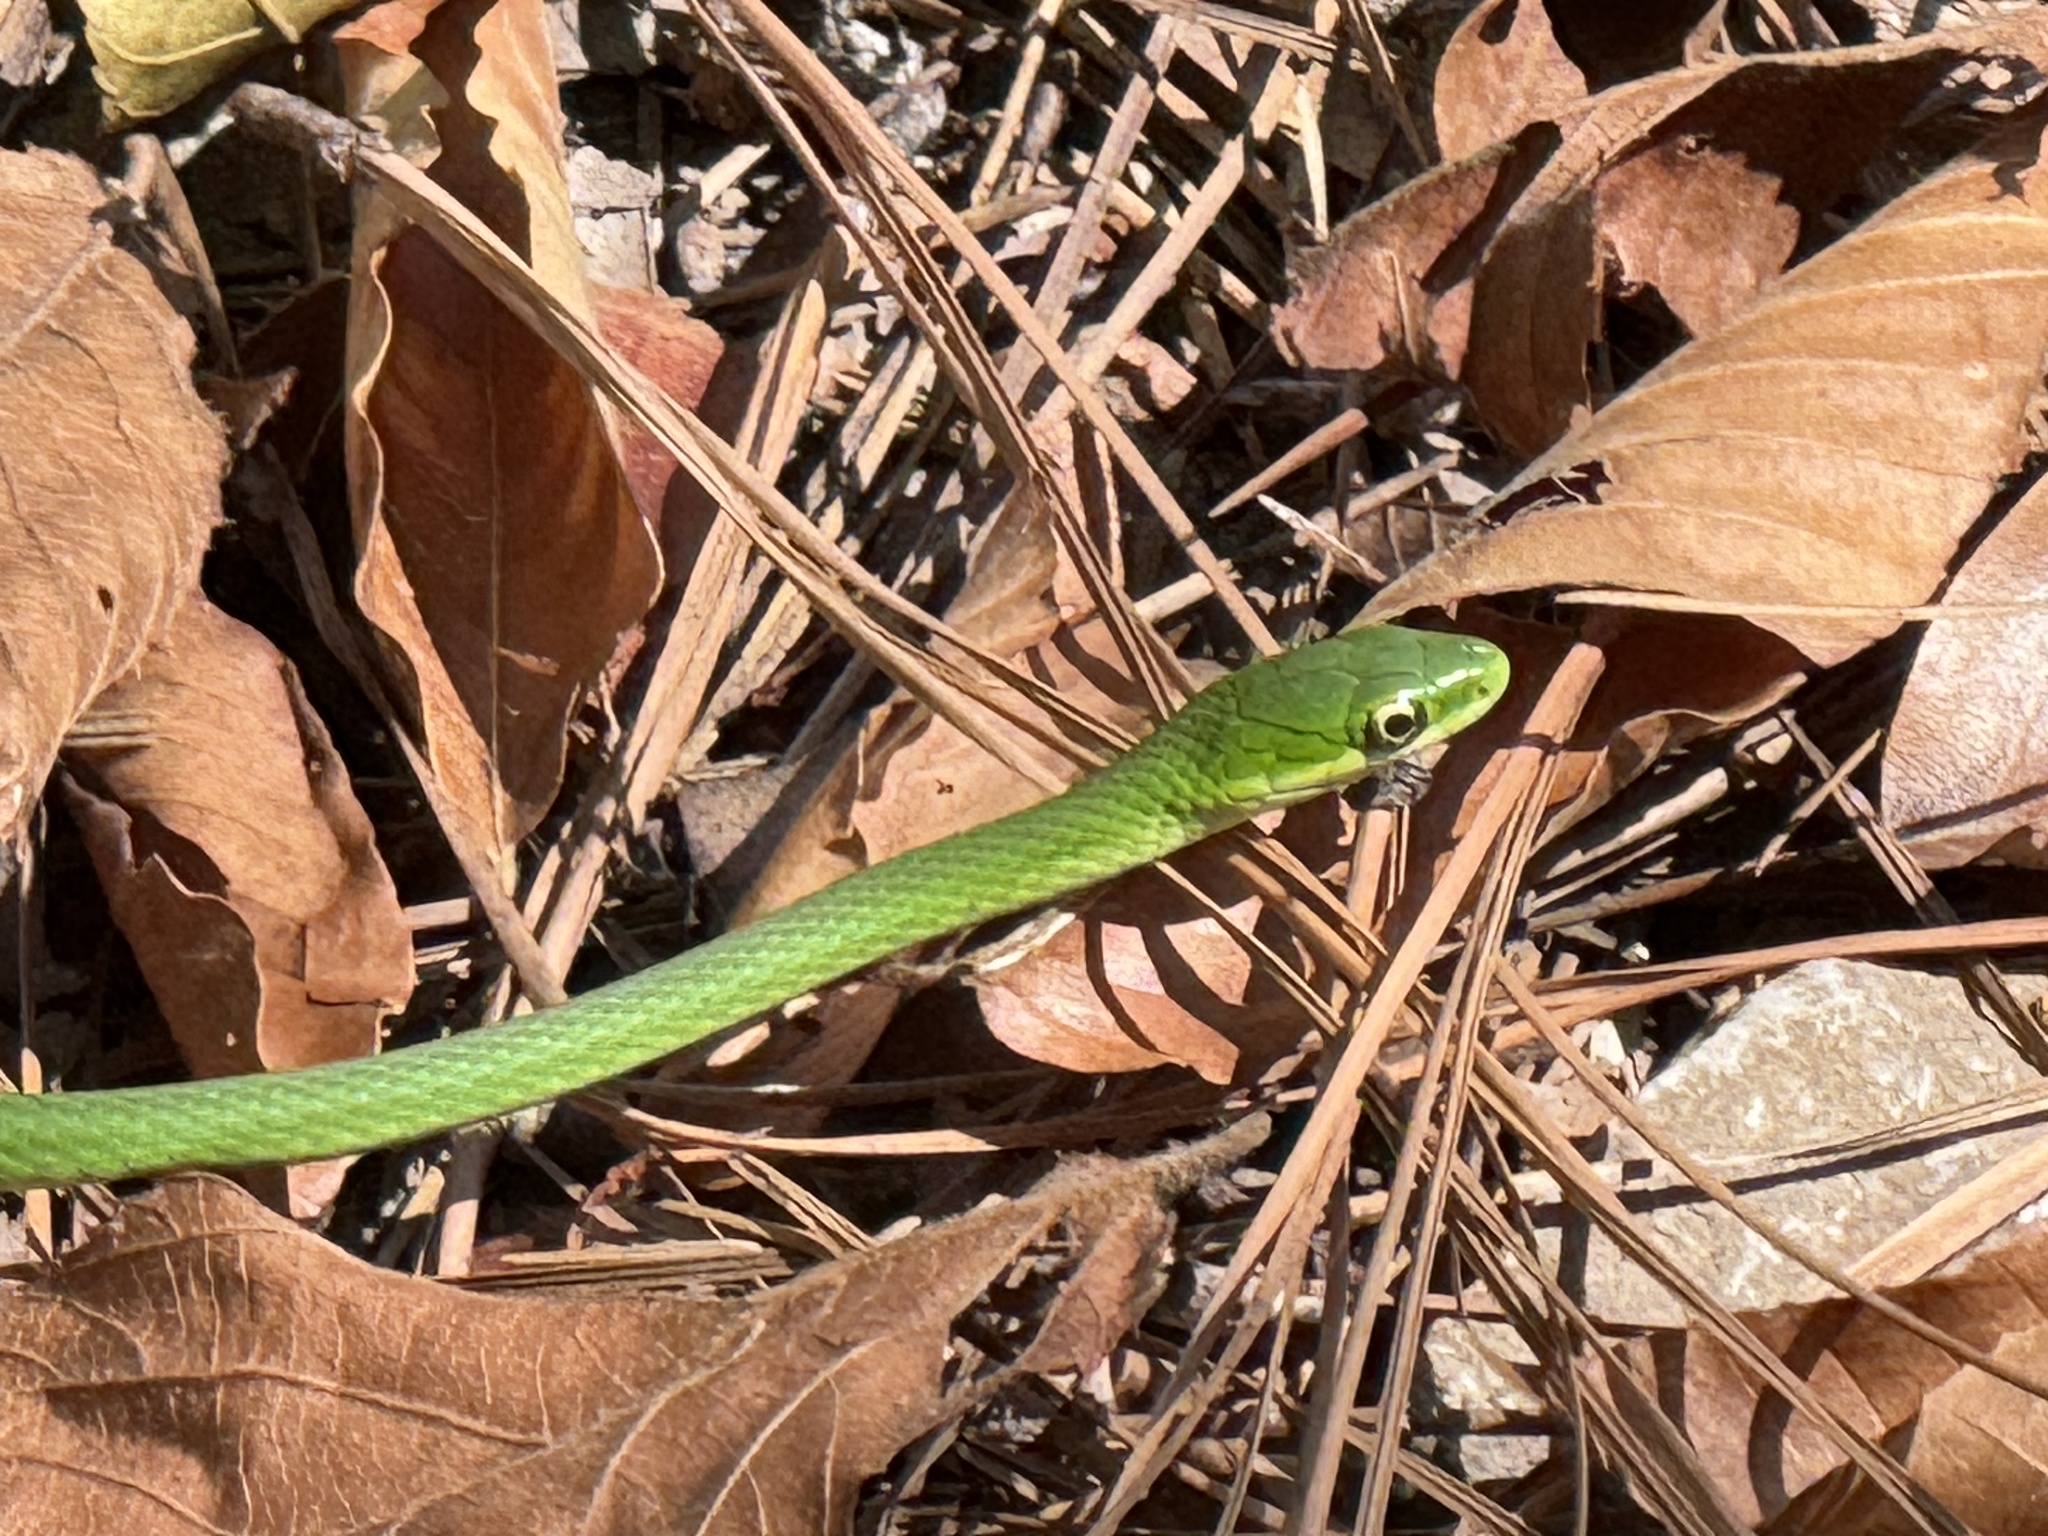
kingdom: Animalia
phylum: Chordata
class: Squamata
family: Colubridae
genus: Opheodrys
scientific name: Opheodrys aestivus
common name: Rough greensnake
